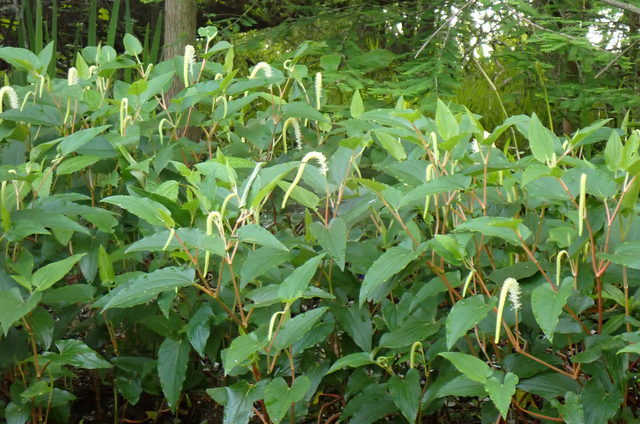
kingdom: Plantae
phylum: Tracheophyta
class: Magnoliopsida
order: Piperales
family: Saururaceae
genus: Saururus
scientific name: Saururus cernuus
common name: Lizard's-tail
